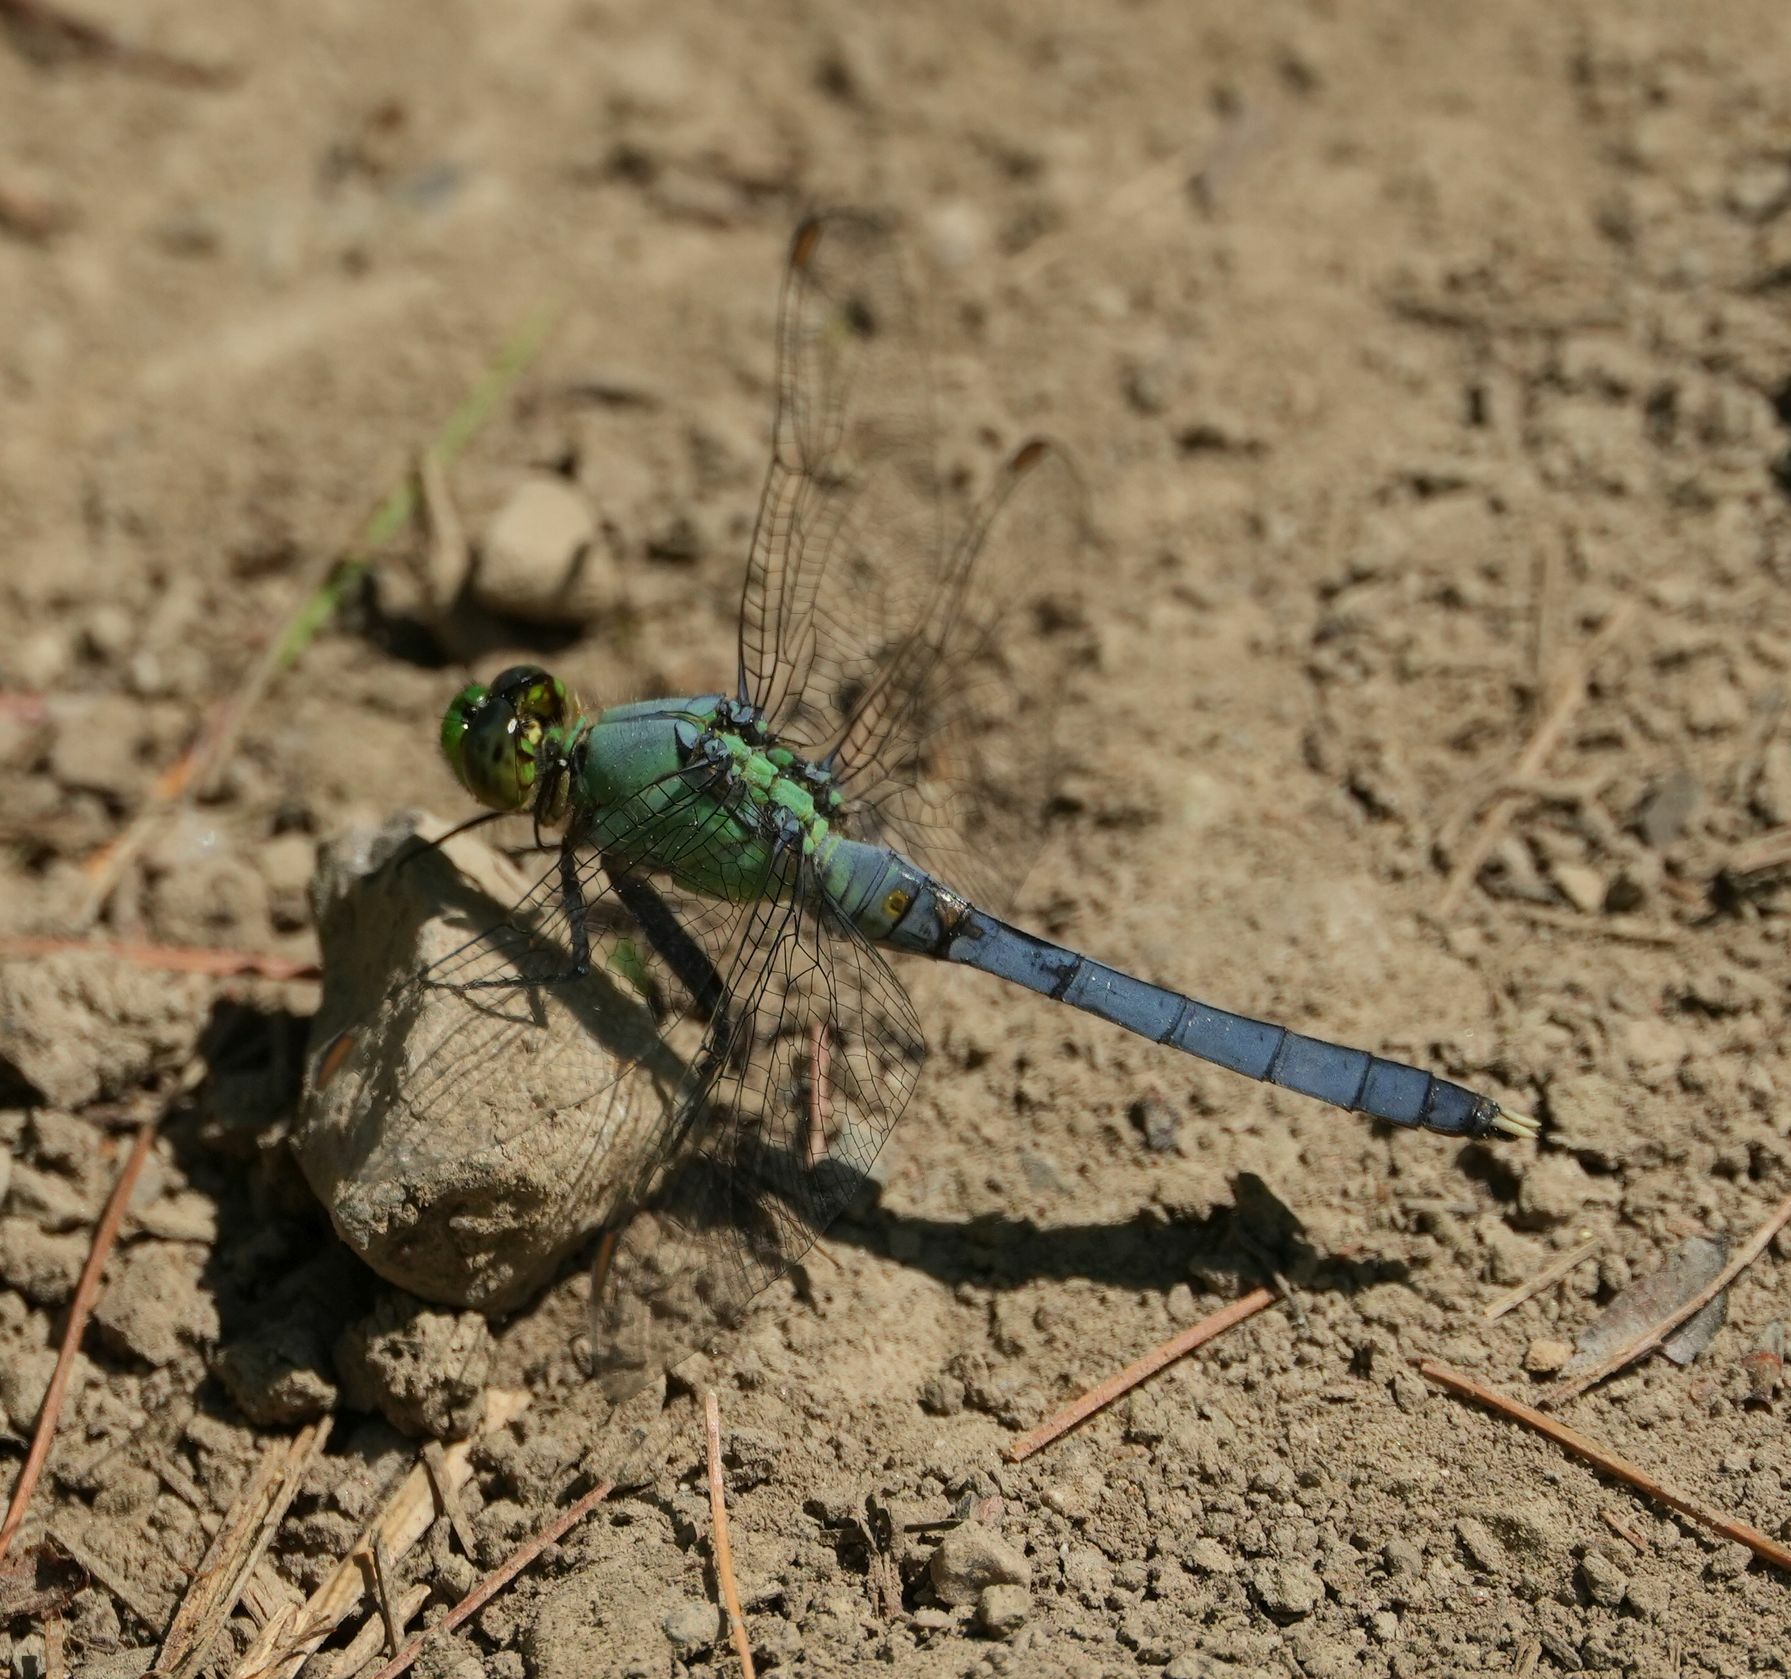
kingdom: Animalia
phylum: Arthropoda
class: Insecta
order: Odonata
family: Libellulidae
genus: Erythemis
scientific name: Erythemis simplicicollis
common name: Eastern pondhawk
